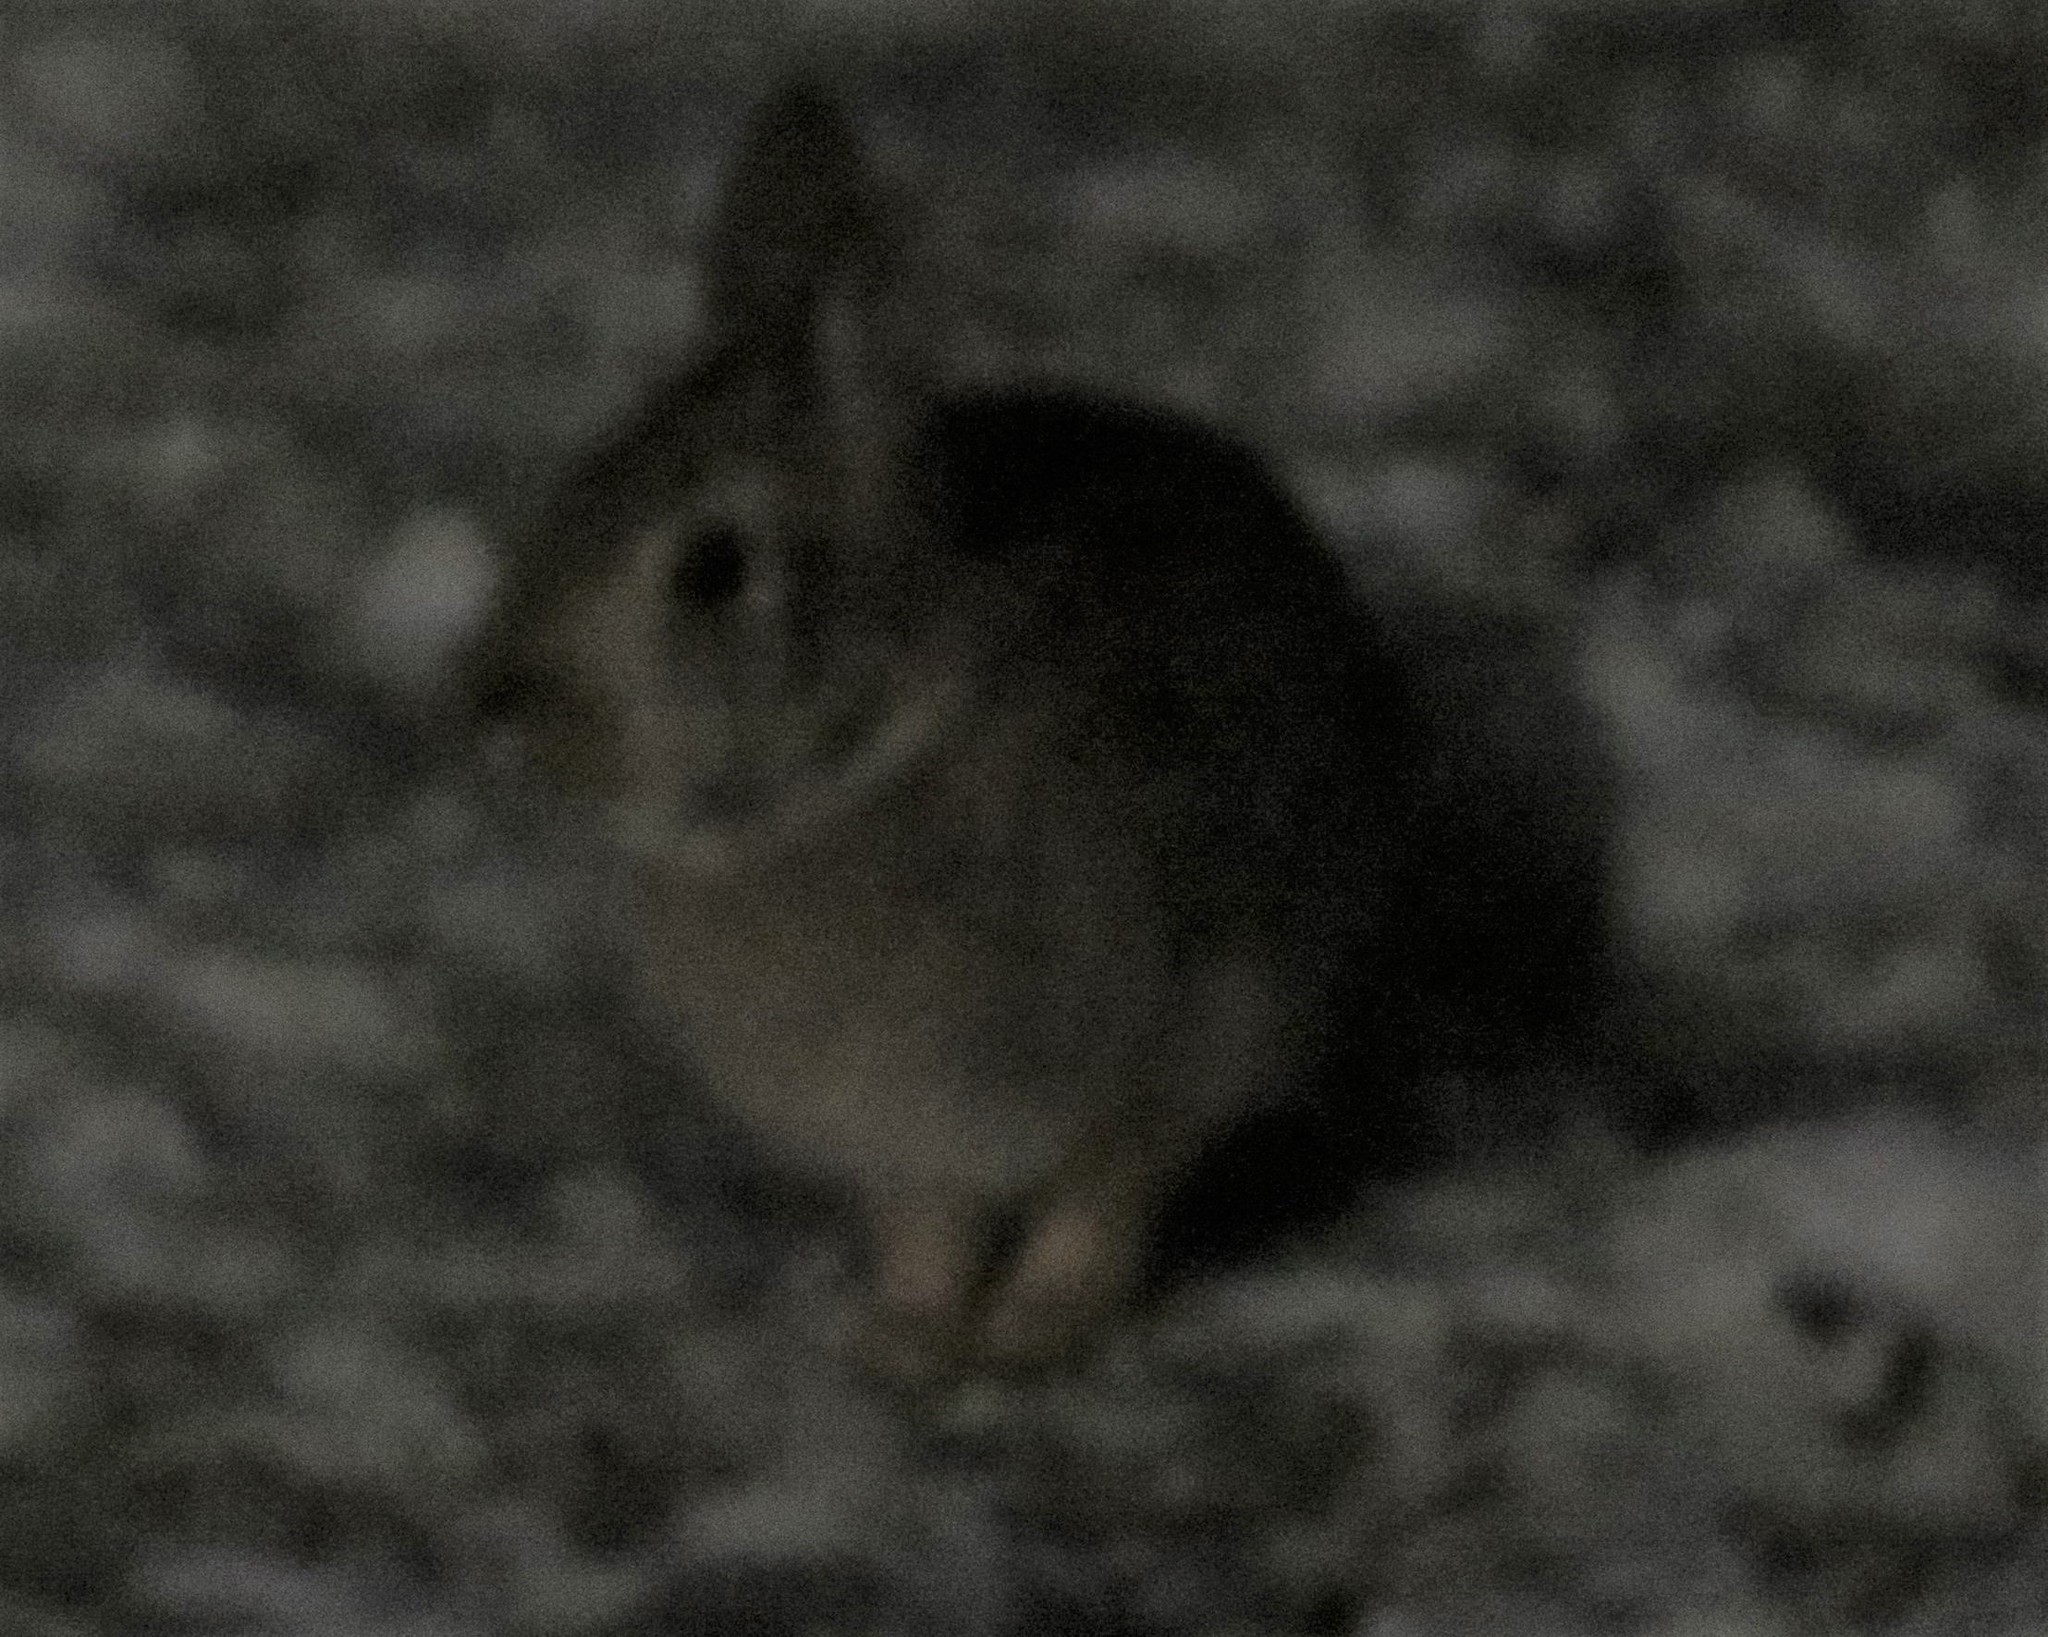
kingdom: Animalia
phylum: Chordata
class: Mammalia
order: Lagomorpha
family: Leporidae
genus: Sylvilagus
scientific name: Sylvilagus floridanus
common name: Eastern cottontail
